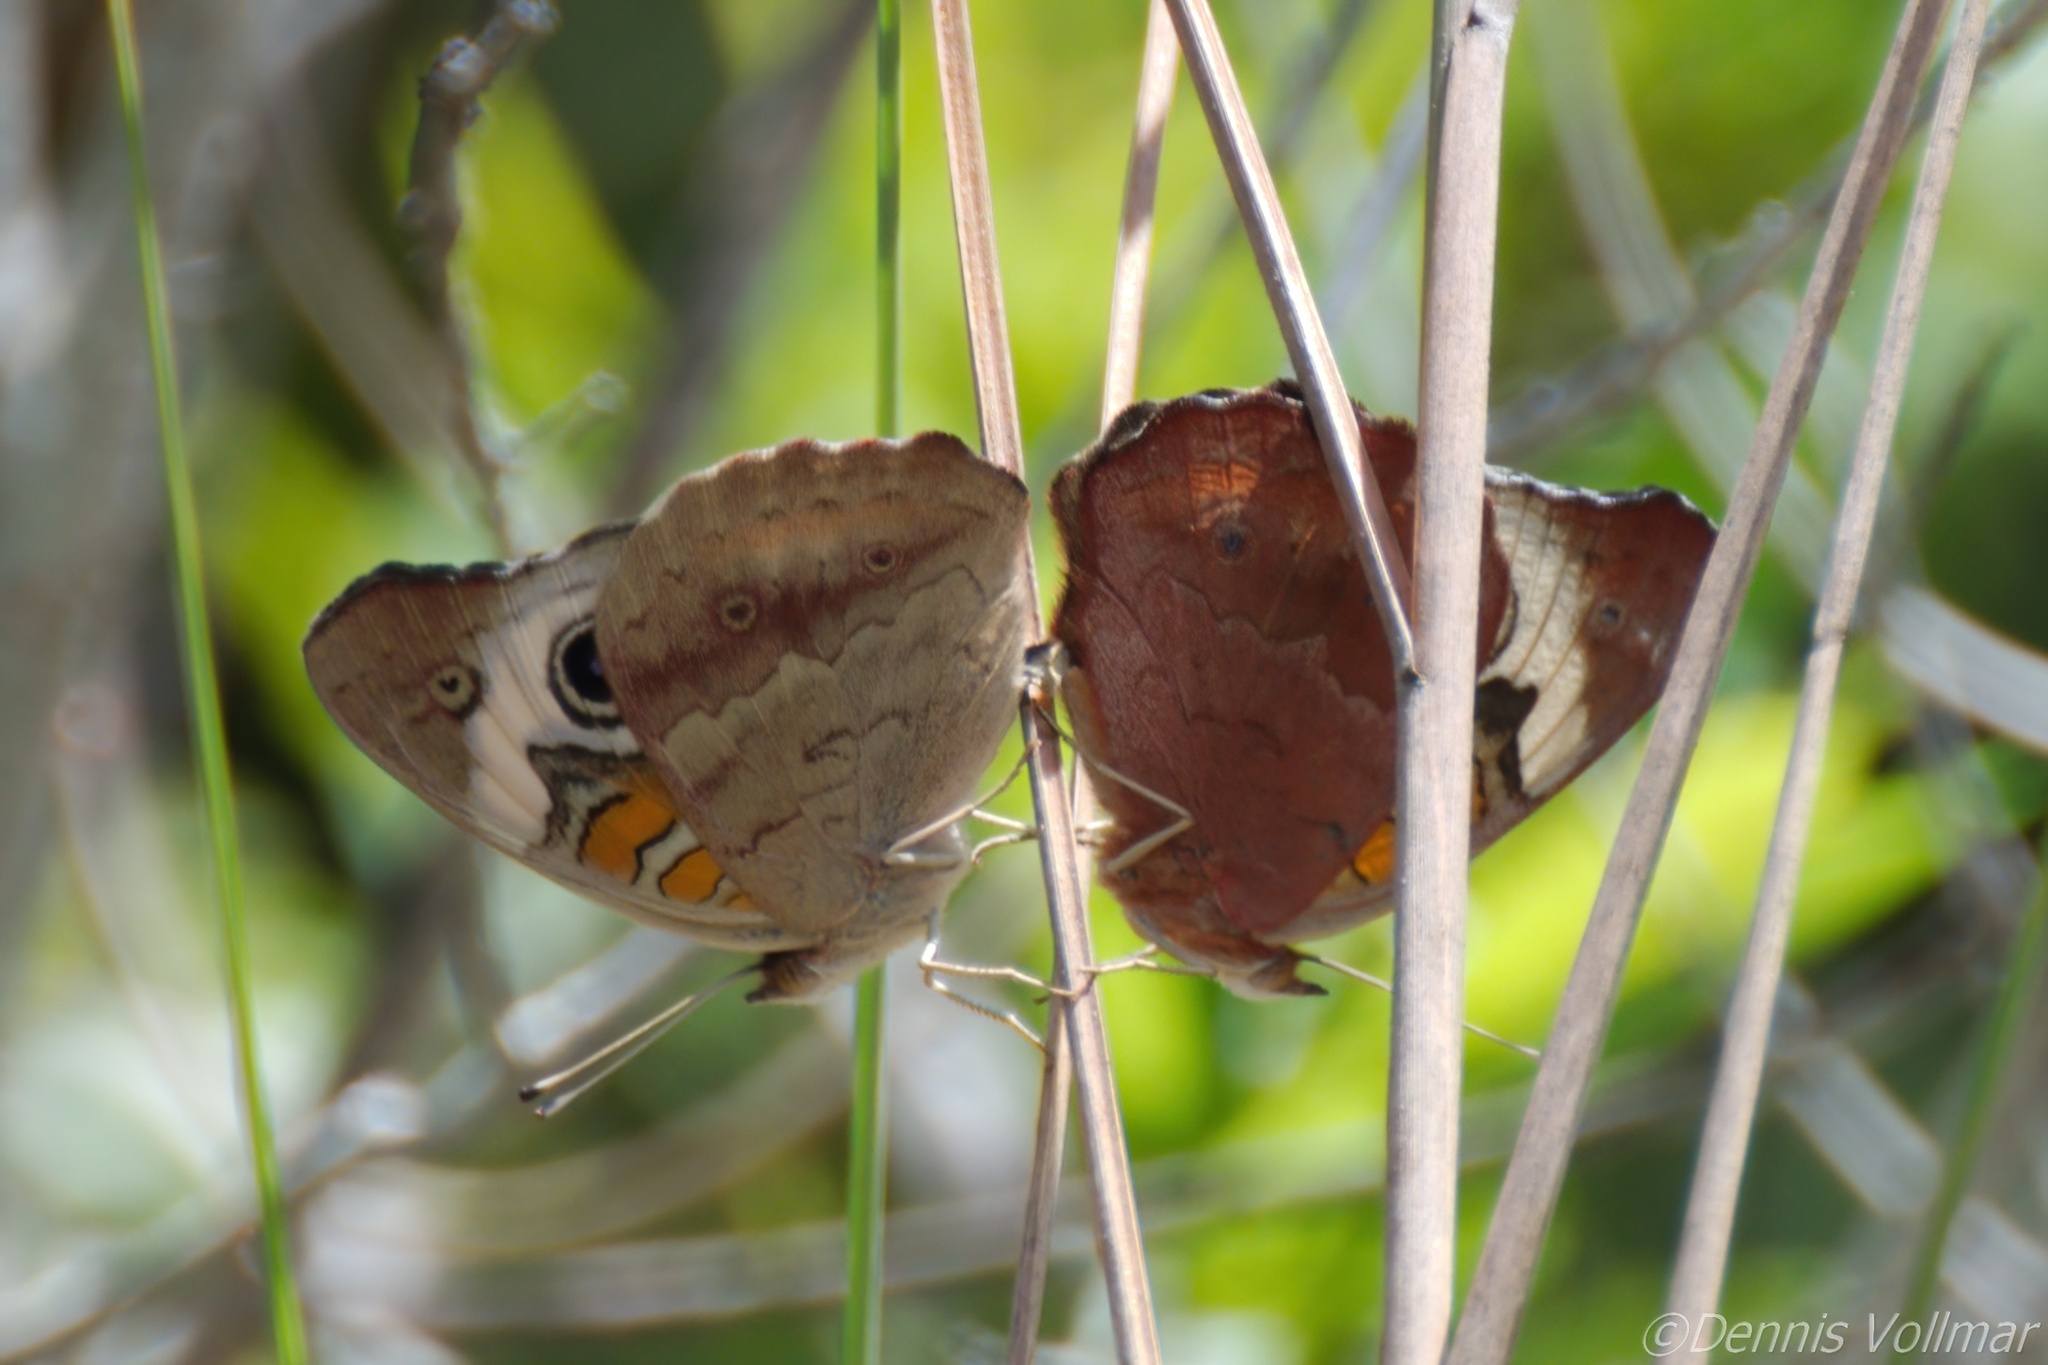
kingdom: Animalia
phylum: Arthropoda
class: Insecta
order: Lepidoptera
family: Nymphalidae
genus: Junonia
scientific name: Junonia coenia
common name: Common buckeye
